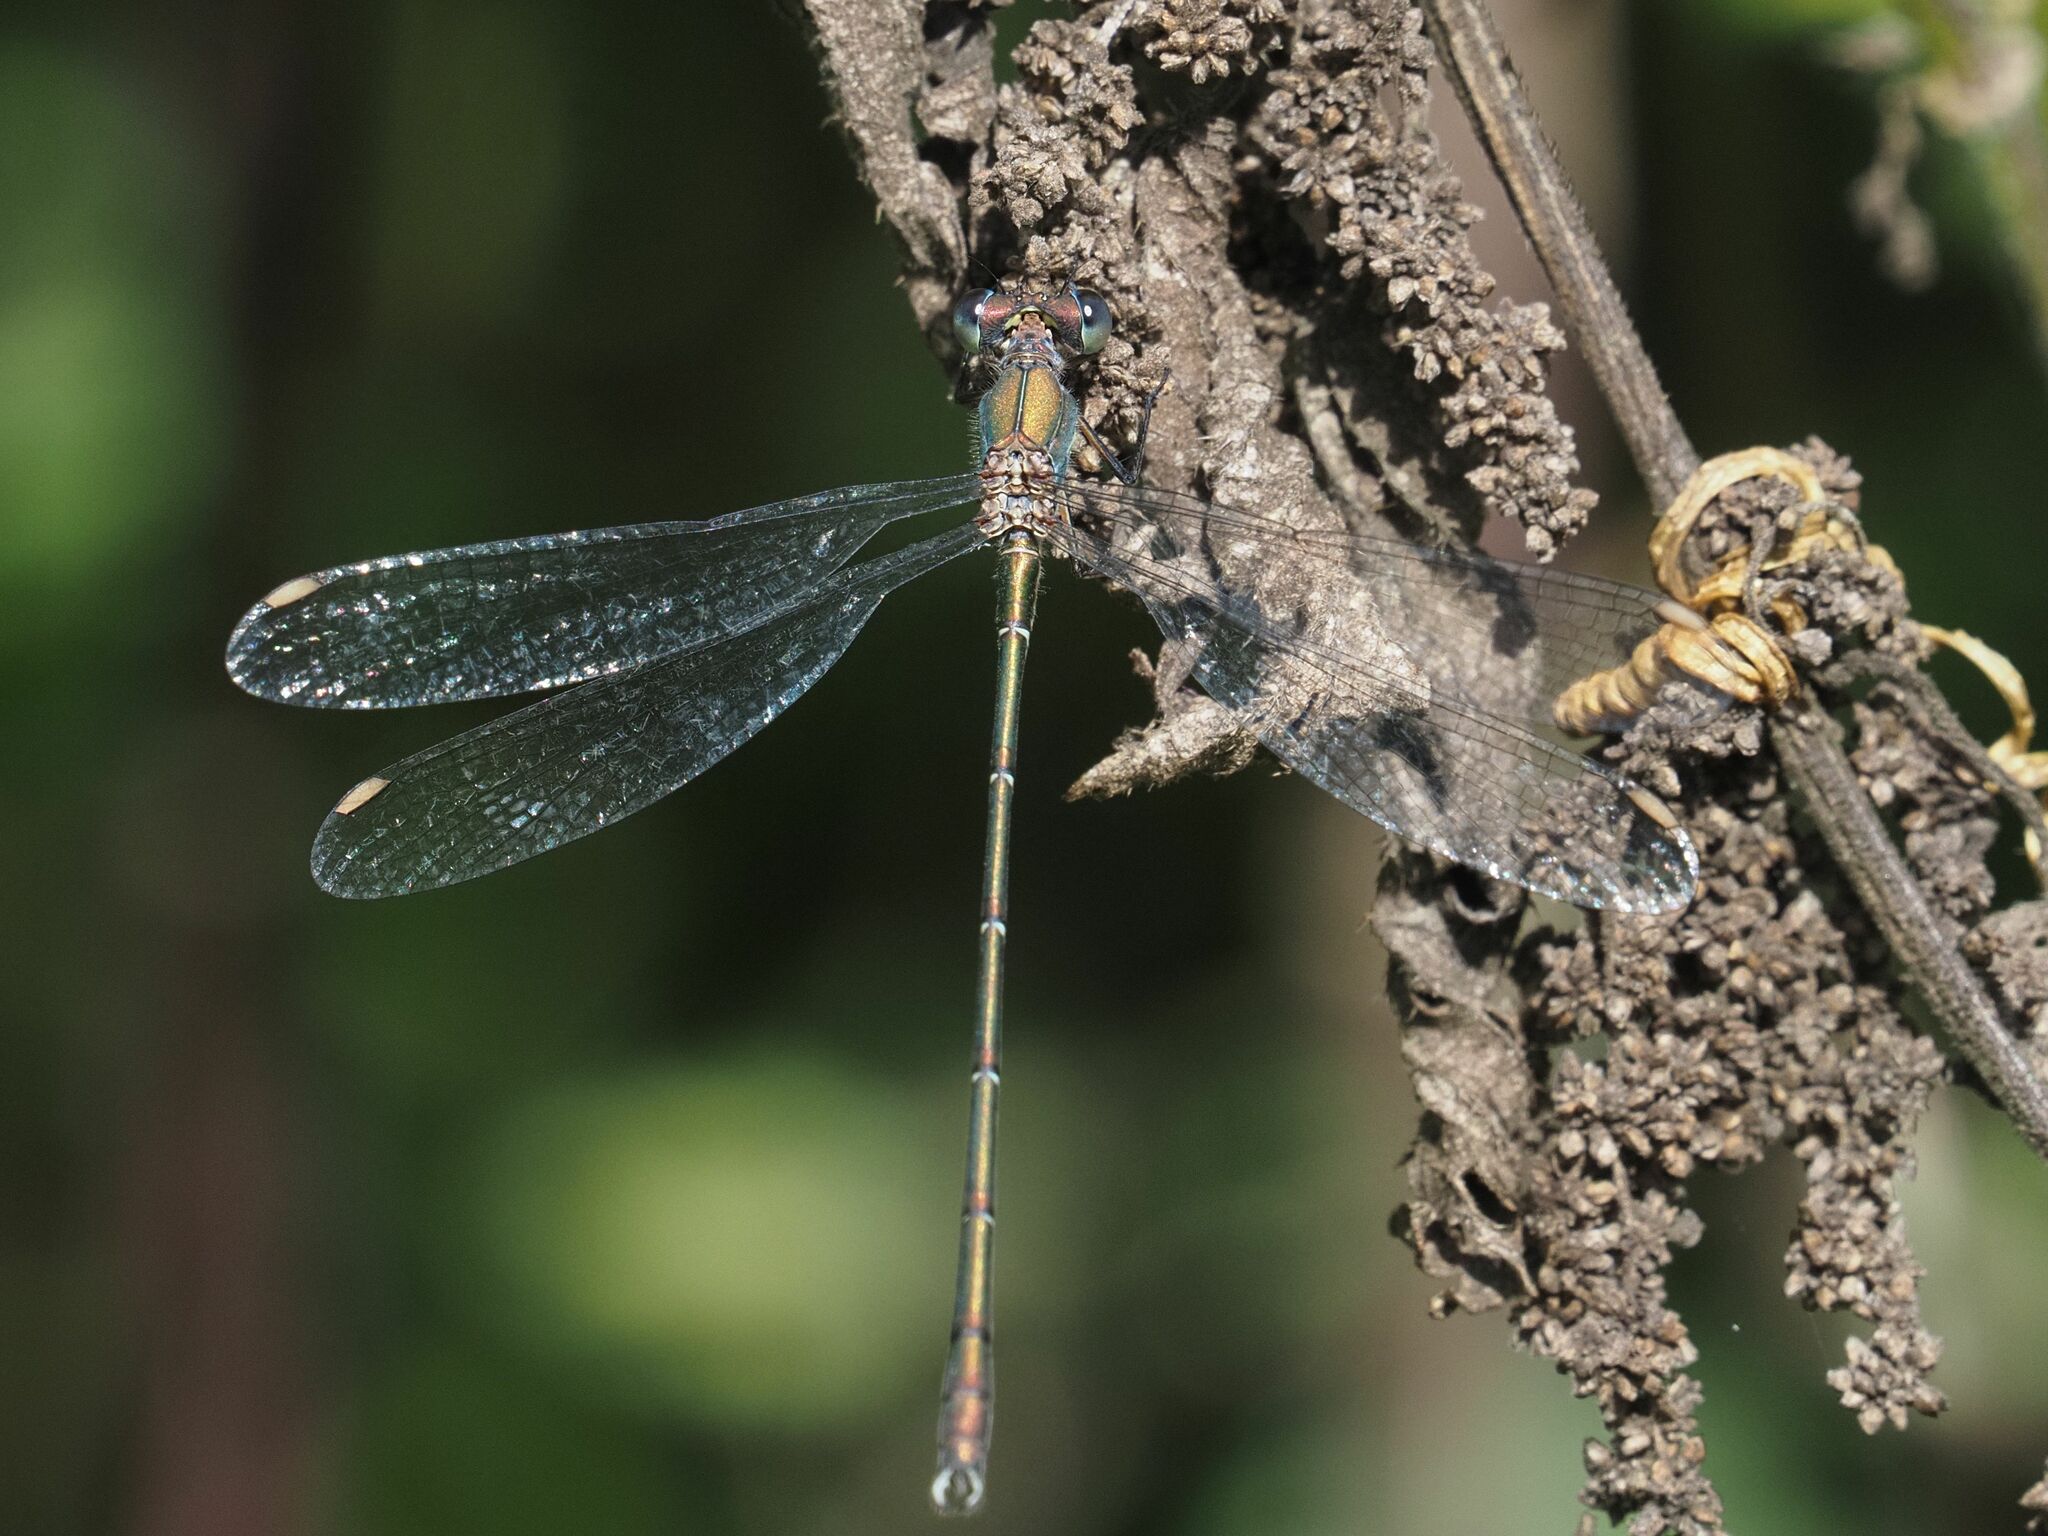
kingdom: Animalia
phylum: Arthropoda
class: Insecta
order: Odonata
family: Lestidae
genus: Chalcolestes
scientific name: Chalcolestes viridis
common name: Green emerald damselfly
